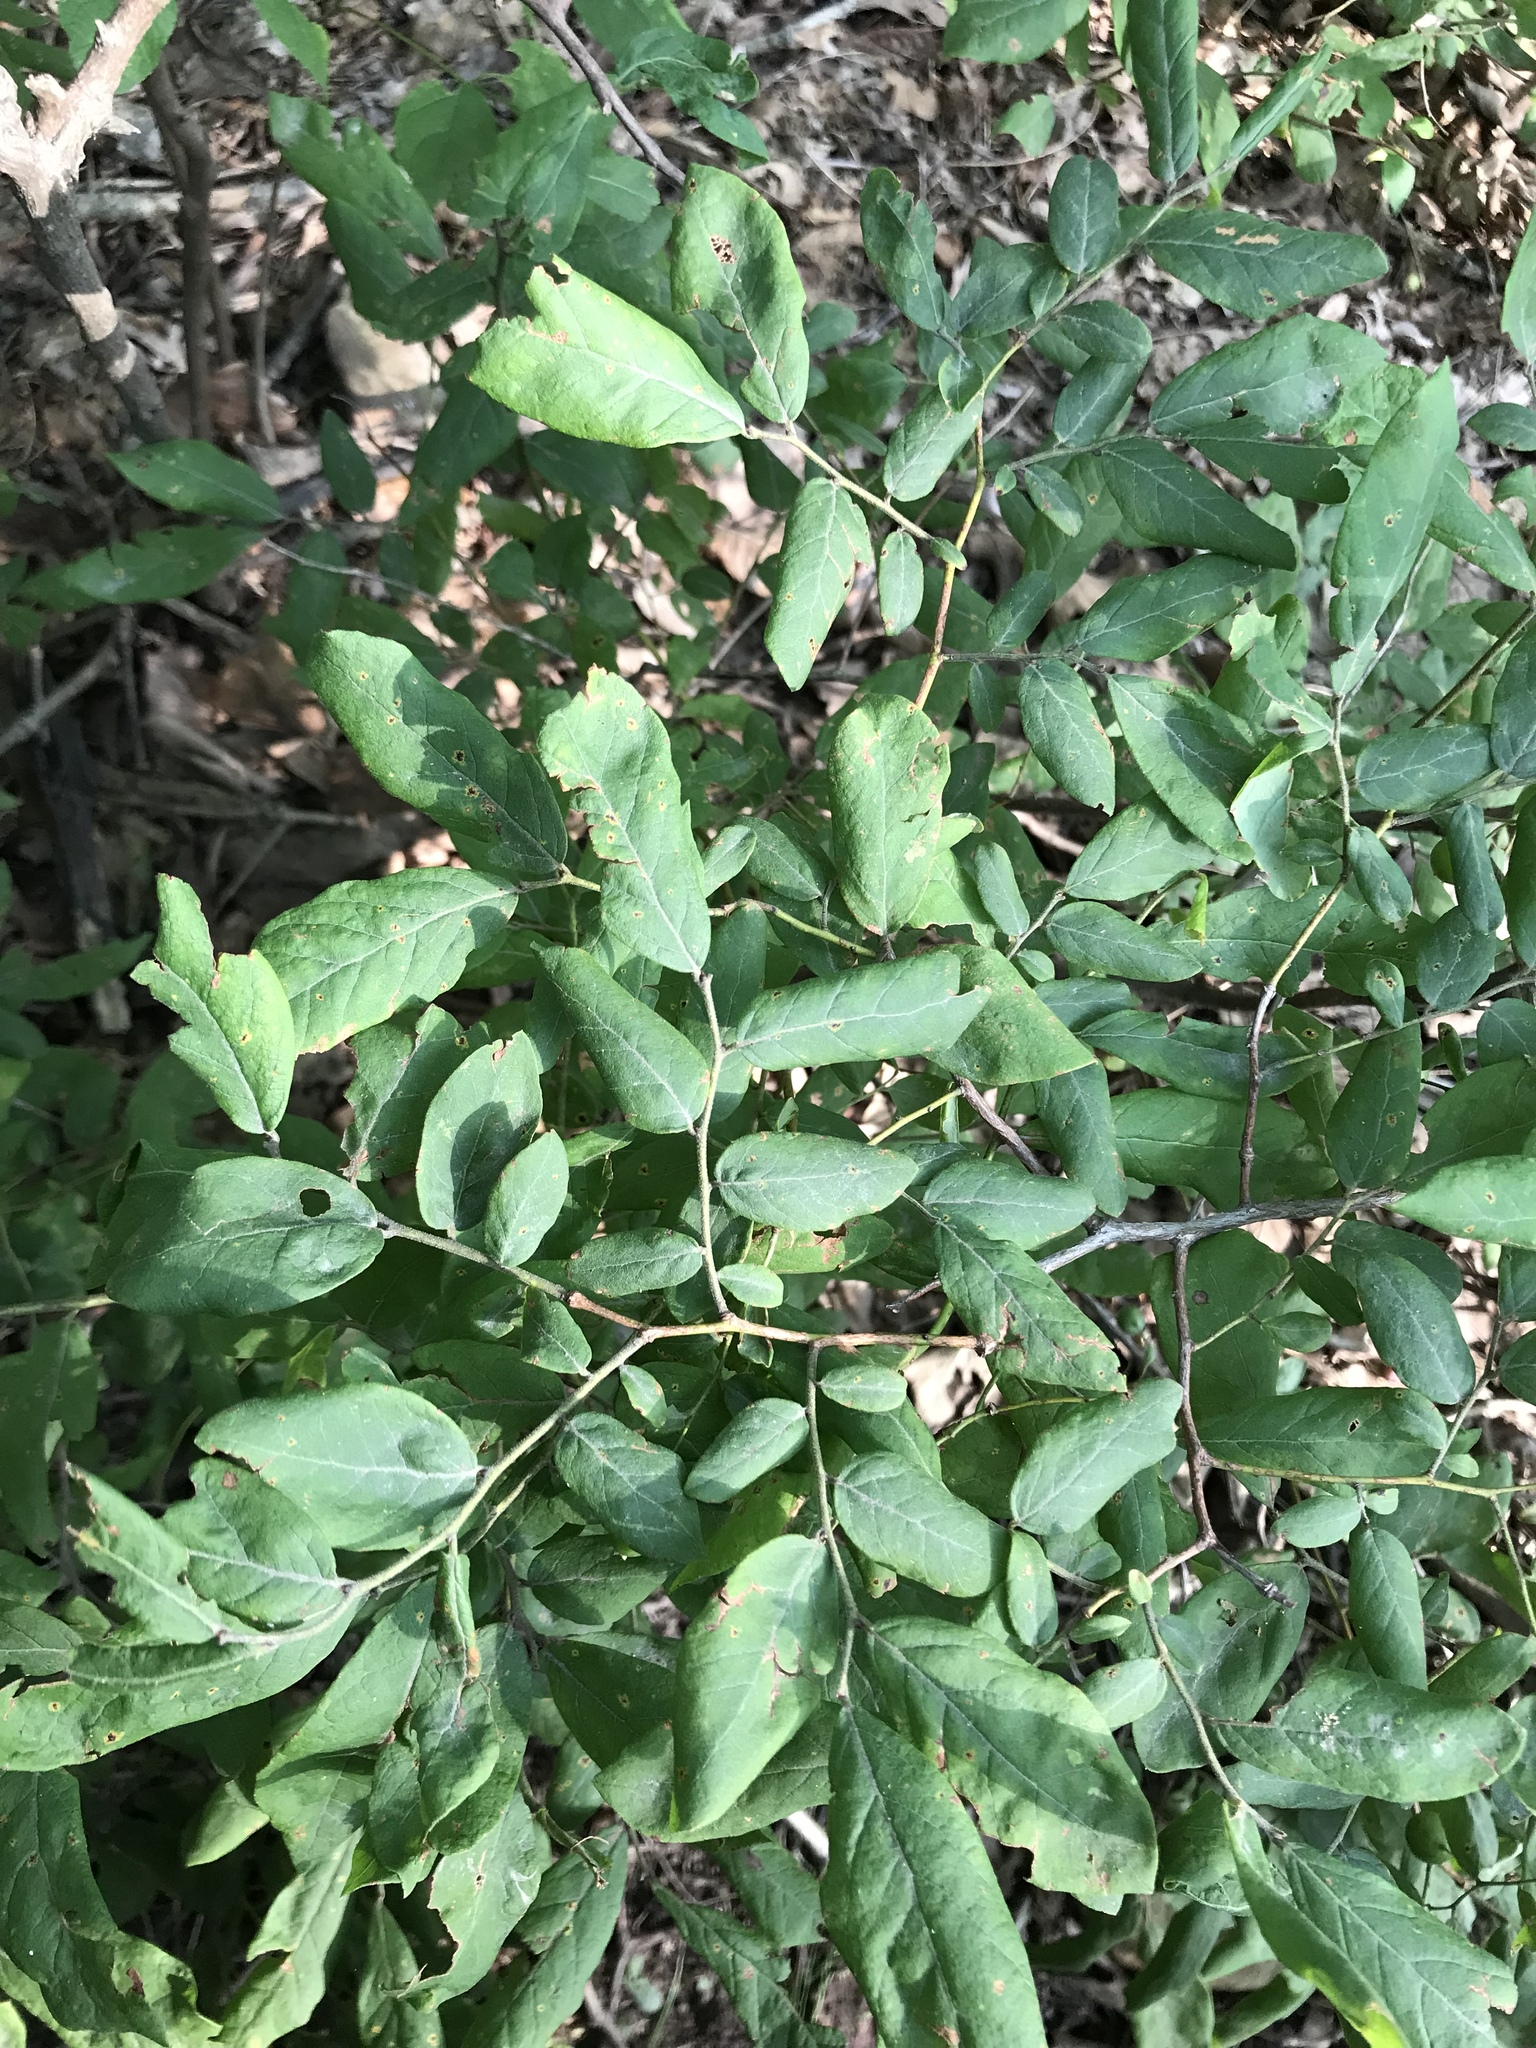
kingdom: Plantae
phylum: Tracheophyta
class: Magnoliopsida
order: Ericales
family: Ericaceae
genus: Vaccinium
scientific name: Vaccinium stamineum
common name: Deerberry
